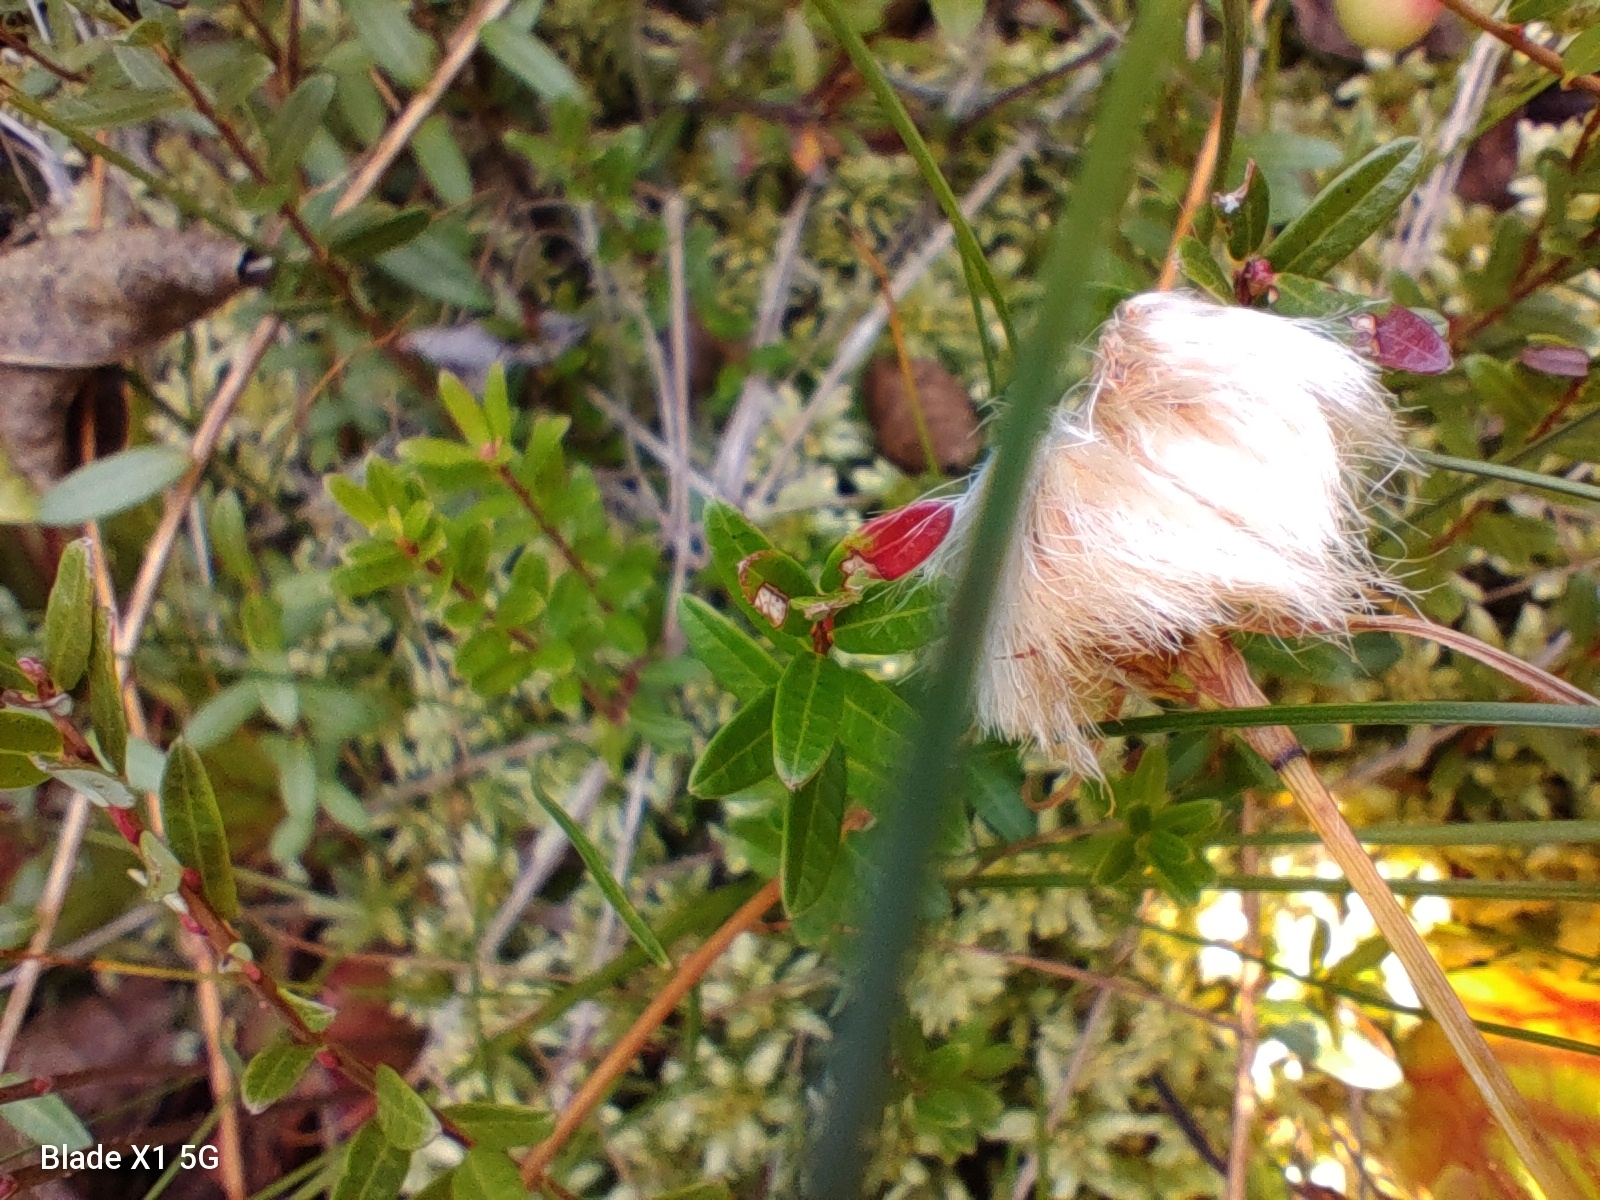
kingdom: Fungi
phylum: Basidiomycota
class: Exobasidiomycetes
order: Exobasidiales
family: Exobasidiaceae
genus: Exobasidium
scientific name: Exobasidium rostrupii
